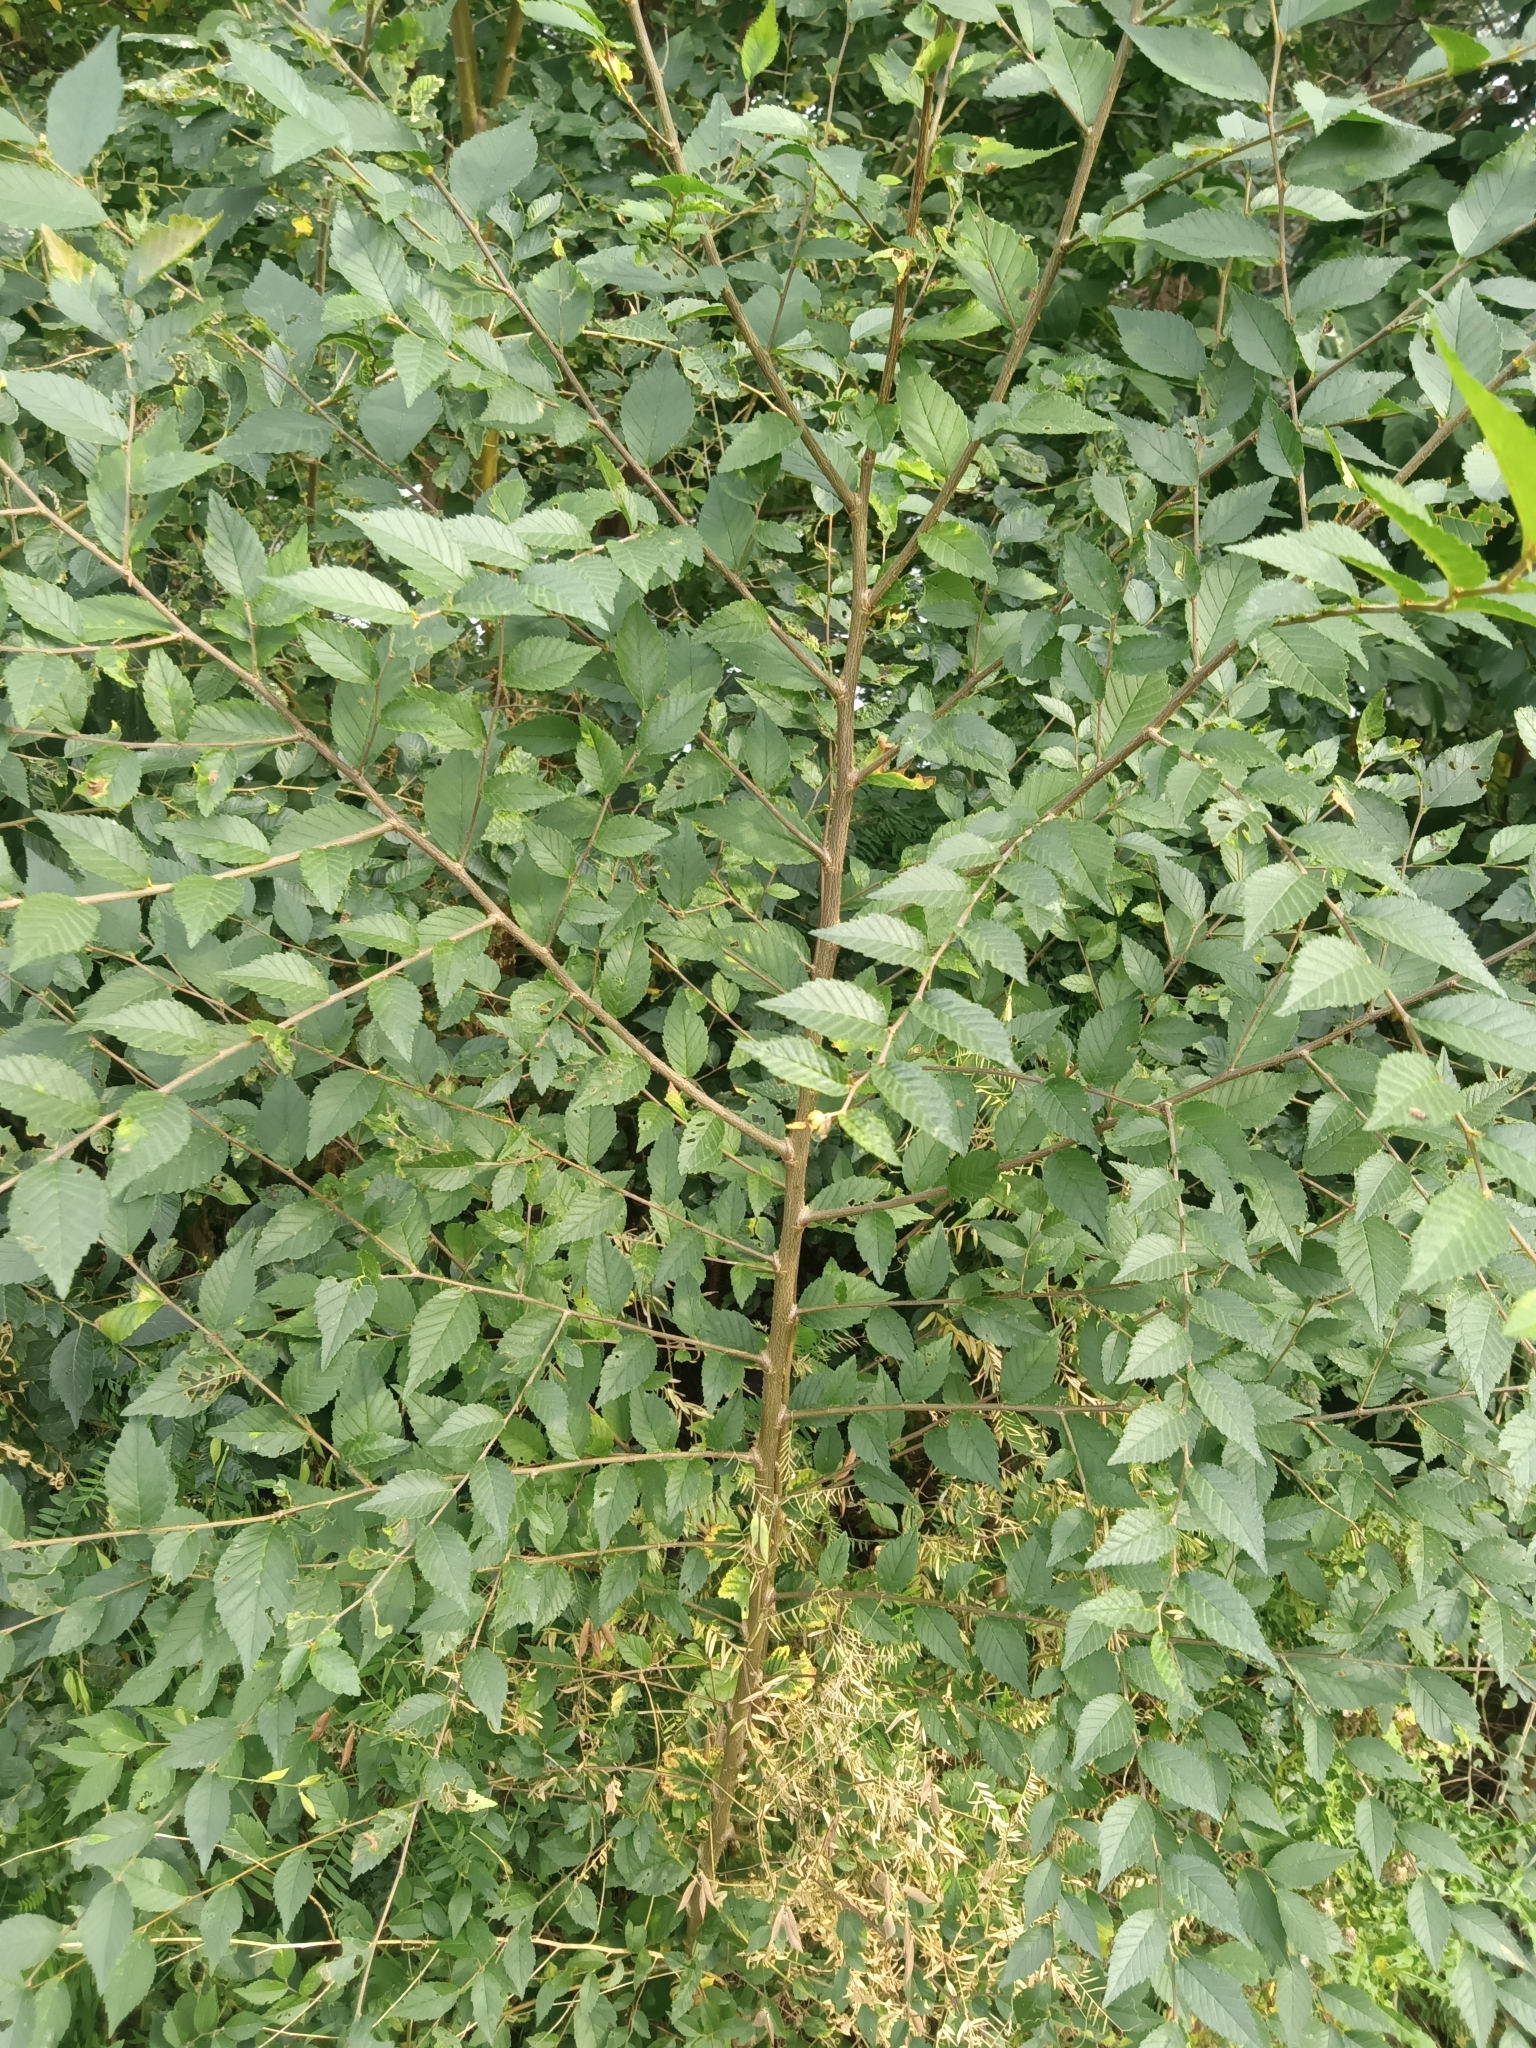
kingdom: Plantae
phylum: Tracheophyta
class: Magnoliopsida
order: Rosales
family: Ulmaceae
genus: Ulmus
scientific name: Ulmus pumila
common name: Siberian elm
